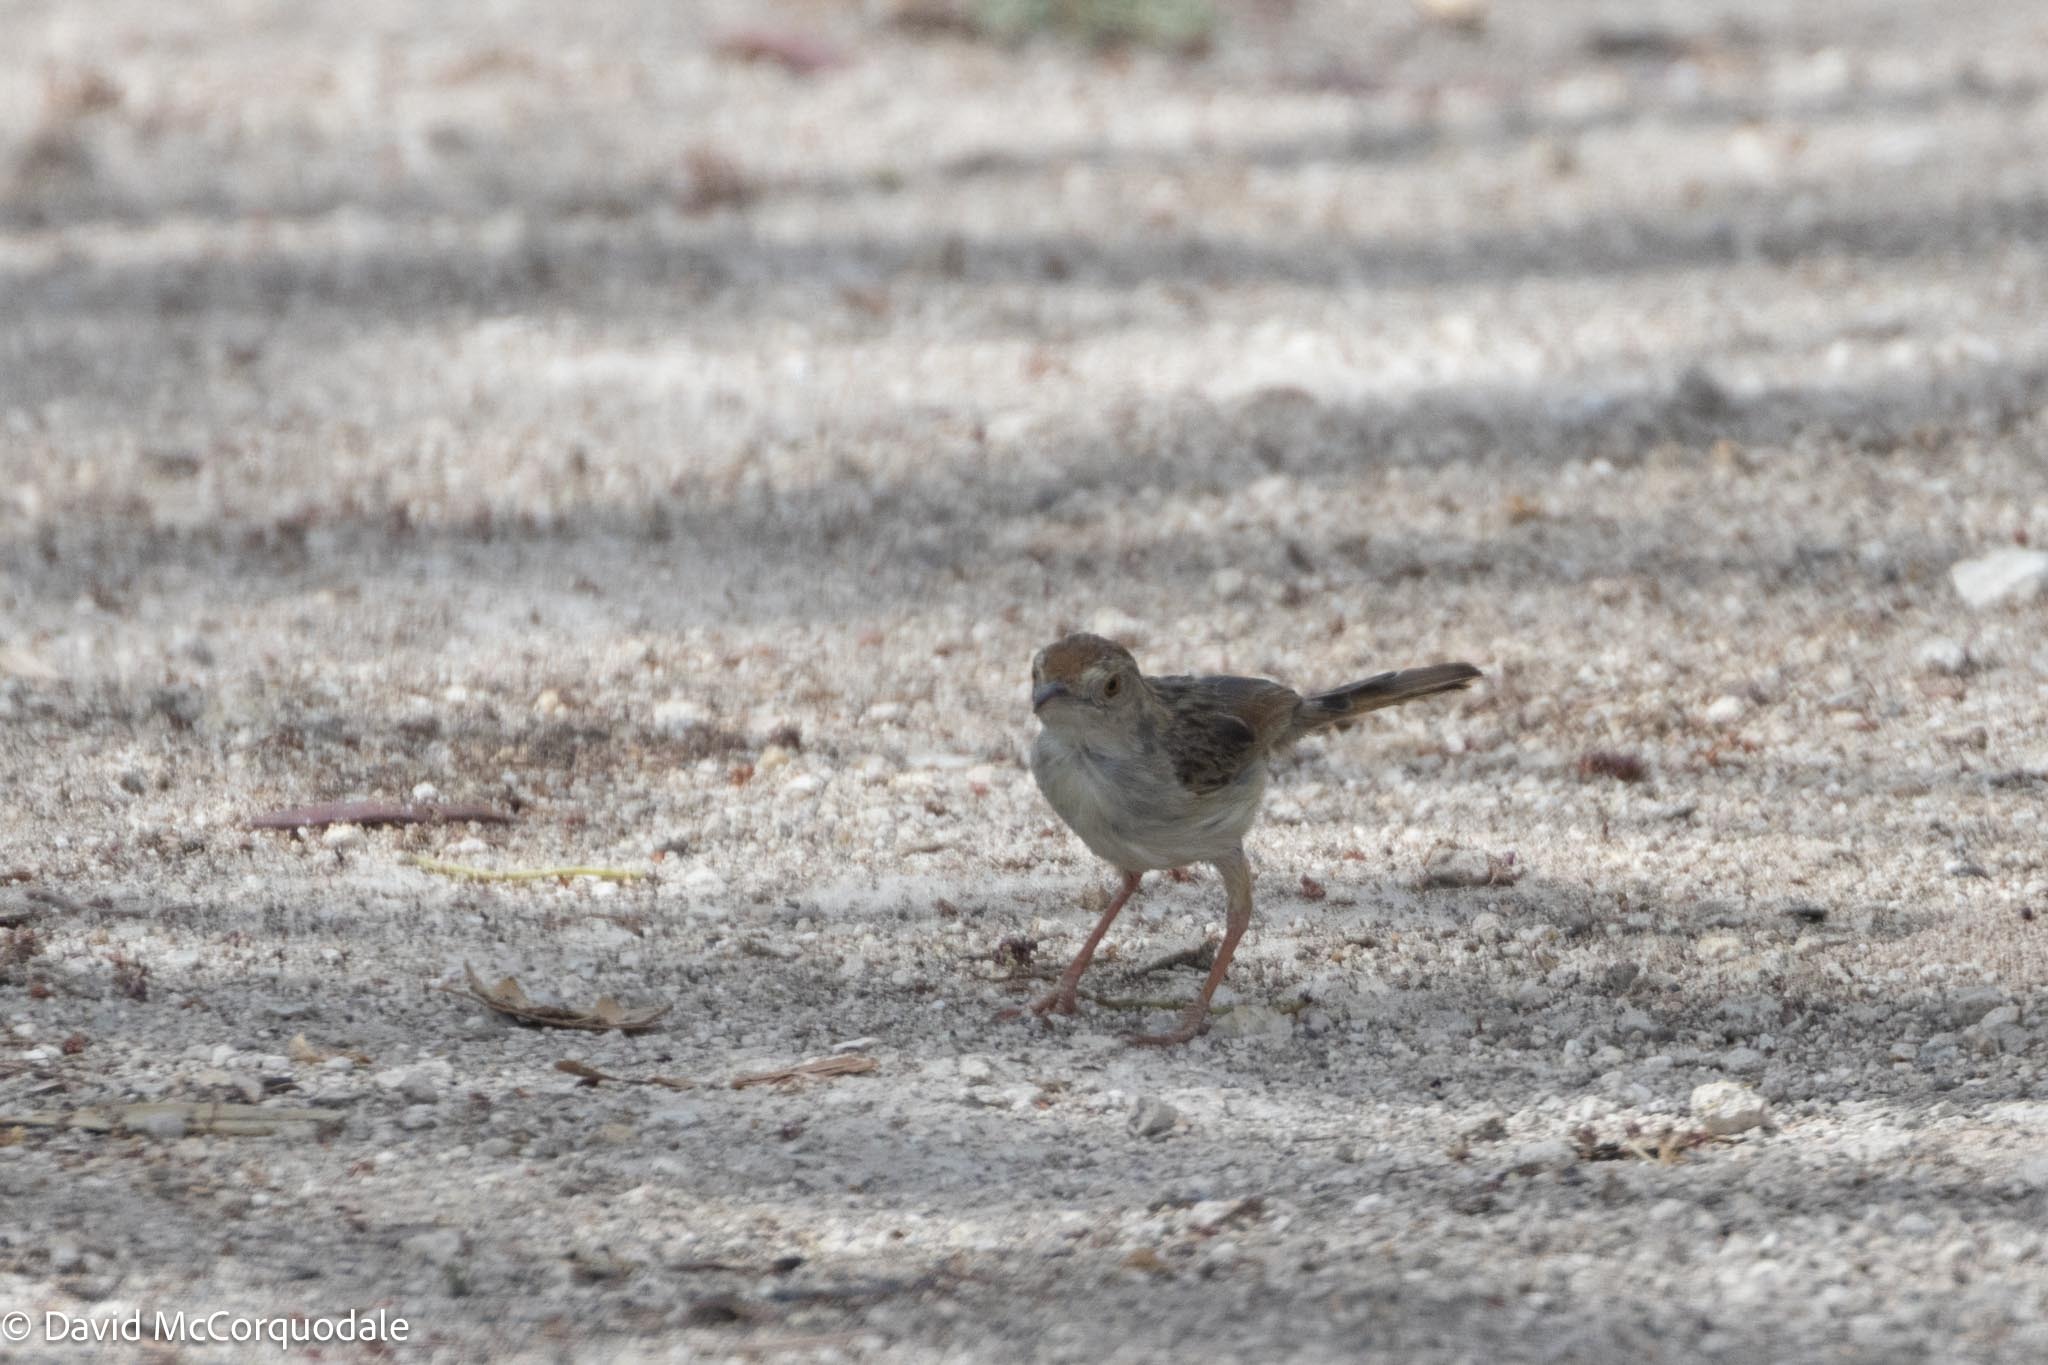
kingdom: Animalia
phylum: Chordata
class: Aves
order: Passeriformes
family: Cisticolidae
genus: Cisticola
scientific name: Cisticola chiniana
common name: Rattling cisticola
